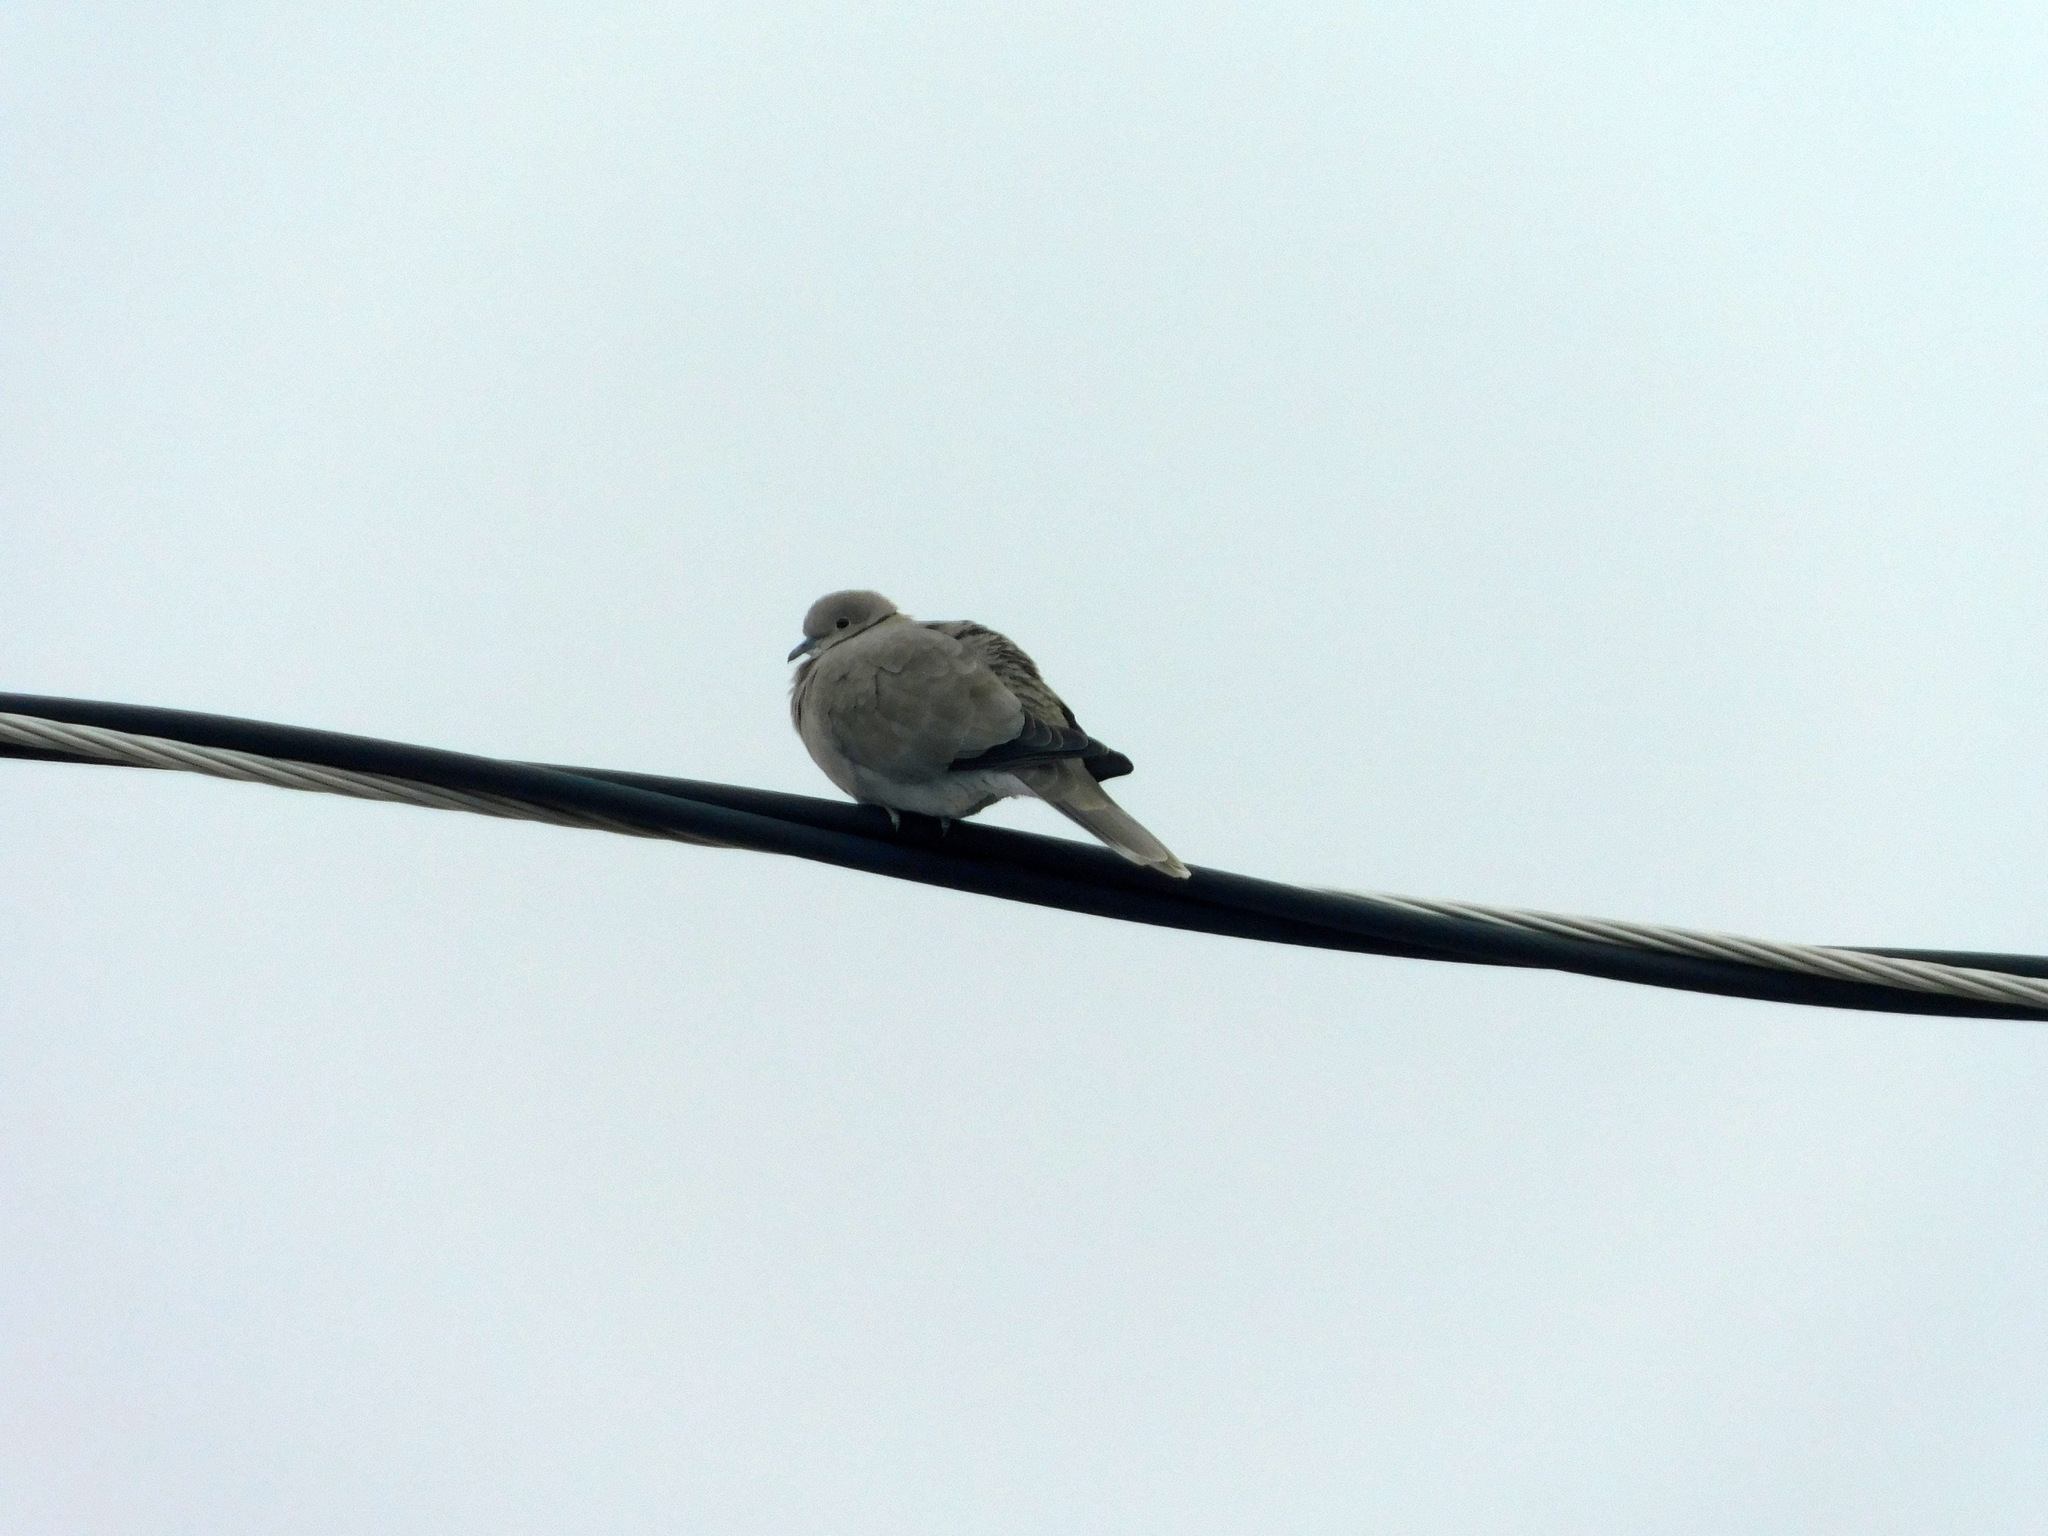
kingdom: Animalia
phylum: Chordata
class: Aves
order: Columbiformes
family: Columbidae
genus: Streptopelia
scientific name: Streptopelia decaocto
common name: Eurasian collared dove
